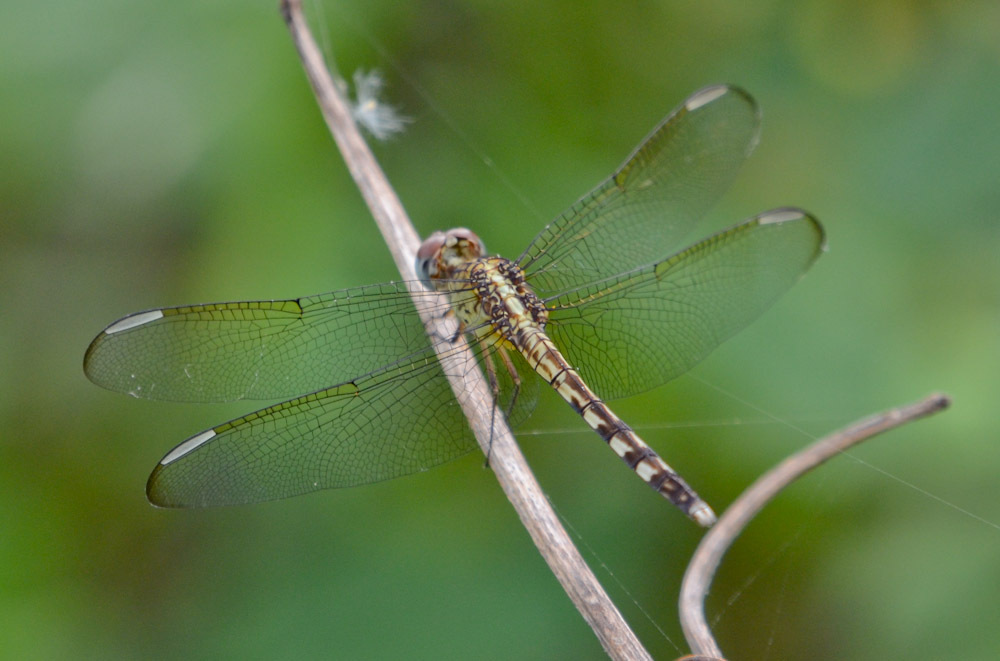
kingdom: Animalia
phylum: Arthropoda
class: Insecta
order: Odonata
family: Libellulidae
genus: Erythrodiplax
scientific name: Erythrodiplax umbrata
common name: Band-winged dragonlet
